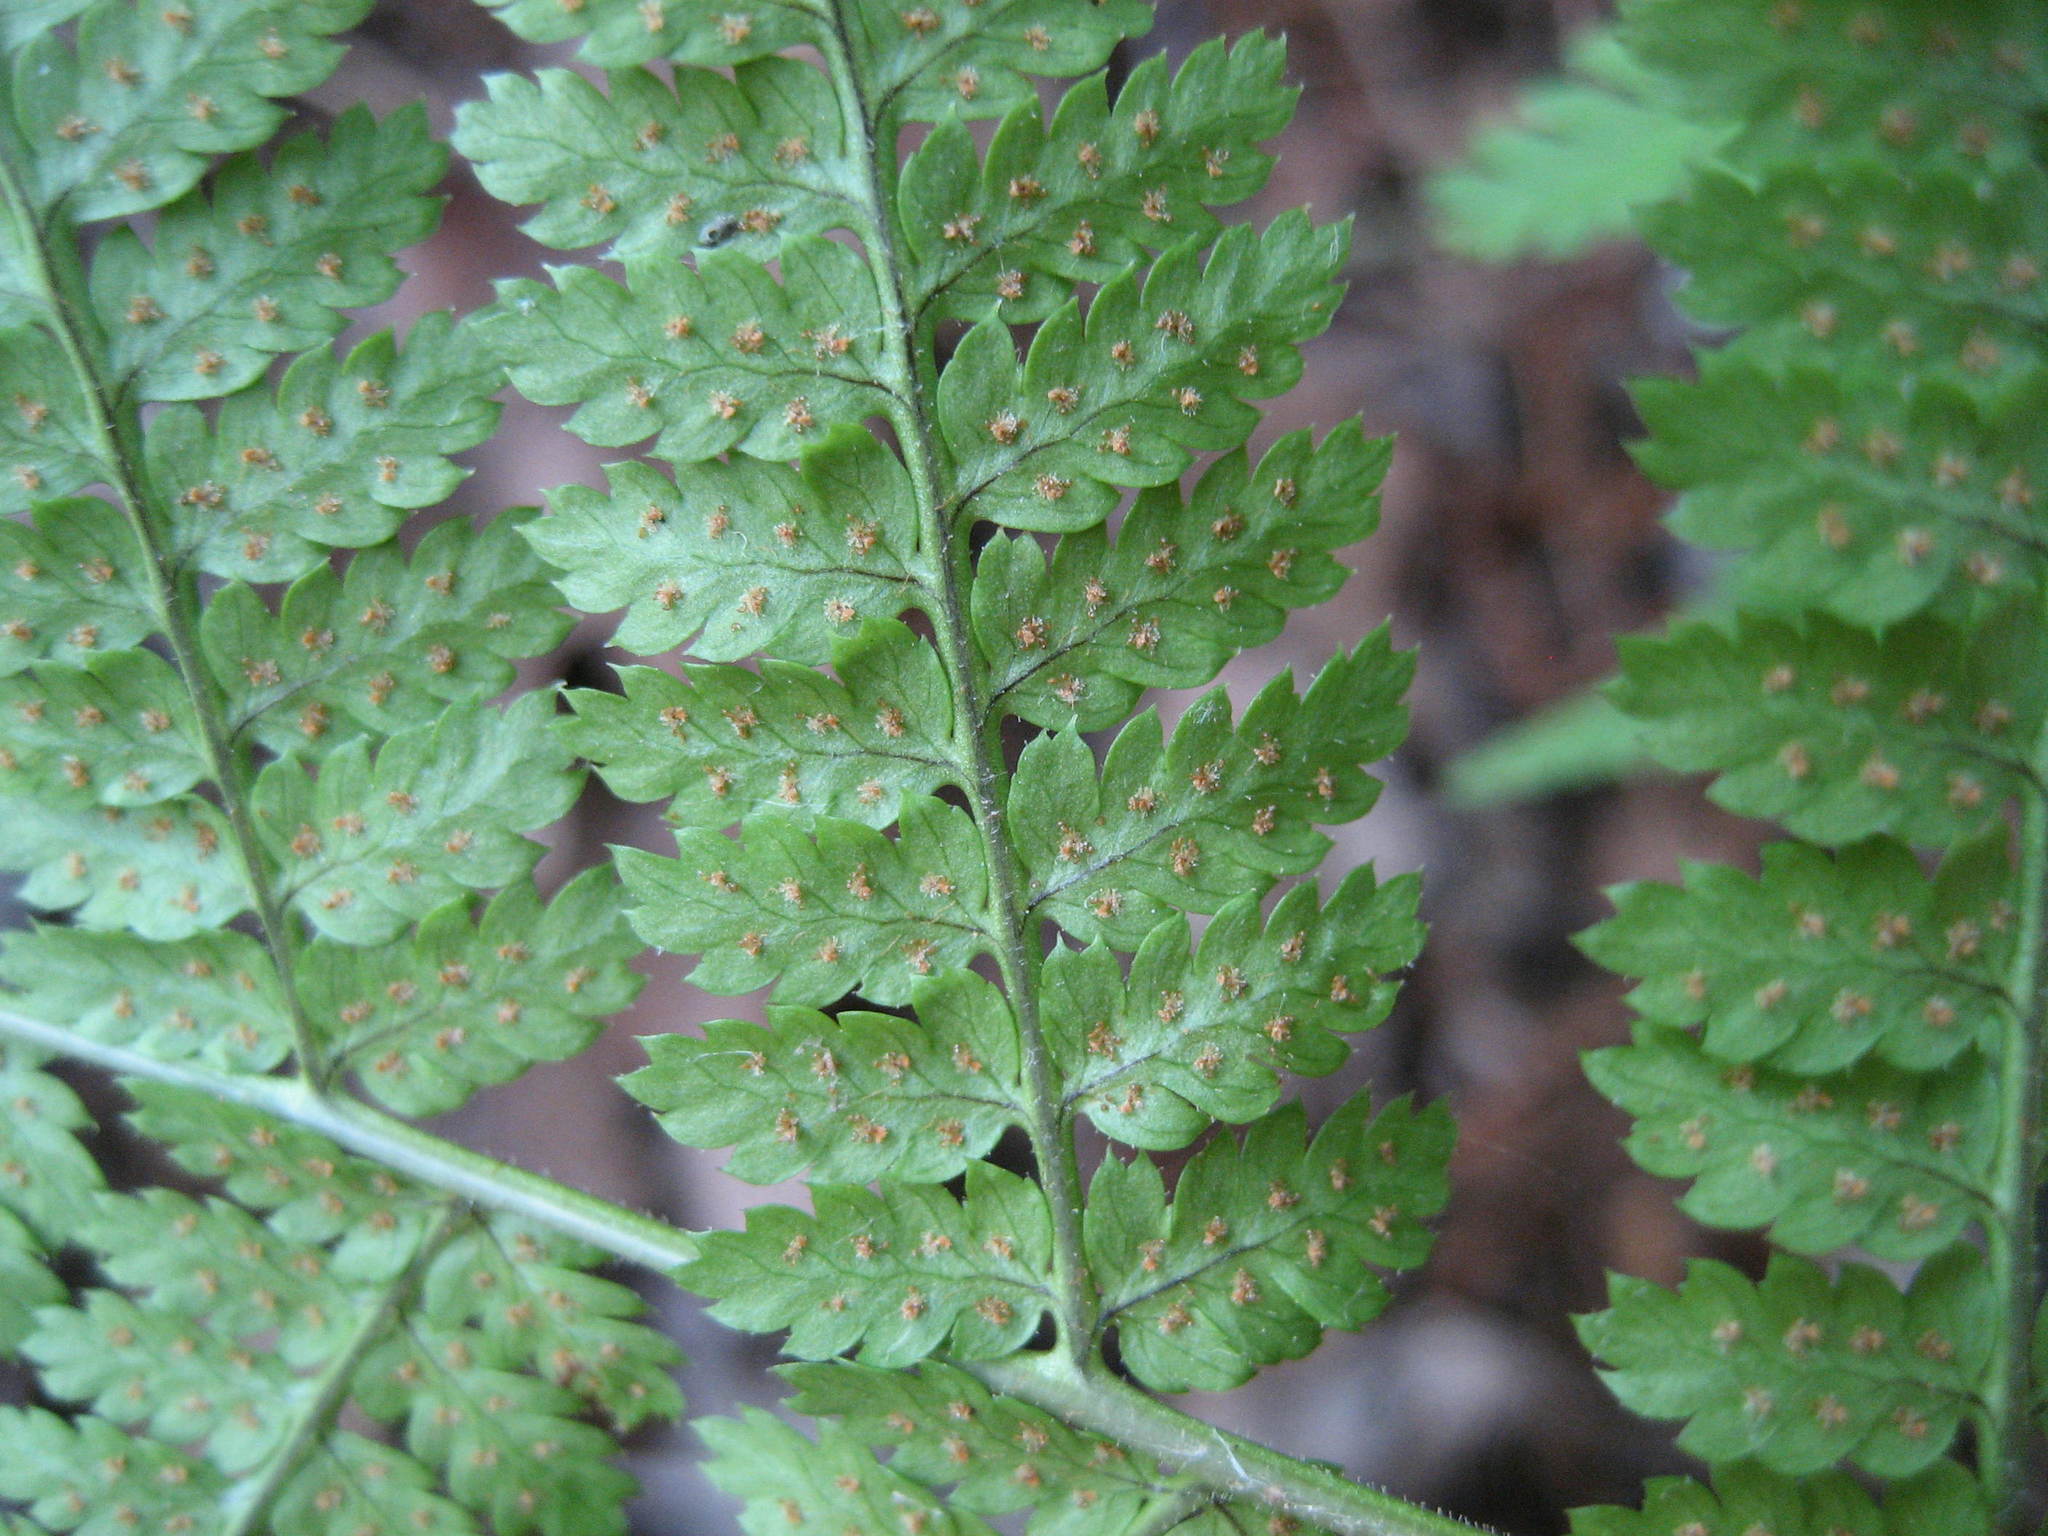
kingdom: Plantae
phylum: Tracheophyta
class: Polypodiopsida
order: Polypodiales
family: Dryopteridaceae
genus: Dryopteris
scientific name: Dryopteris intermedia
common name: Evergreen wood fern
